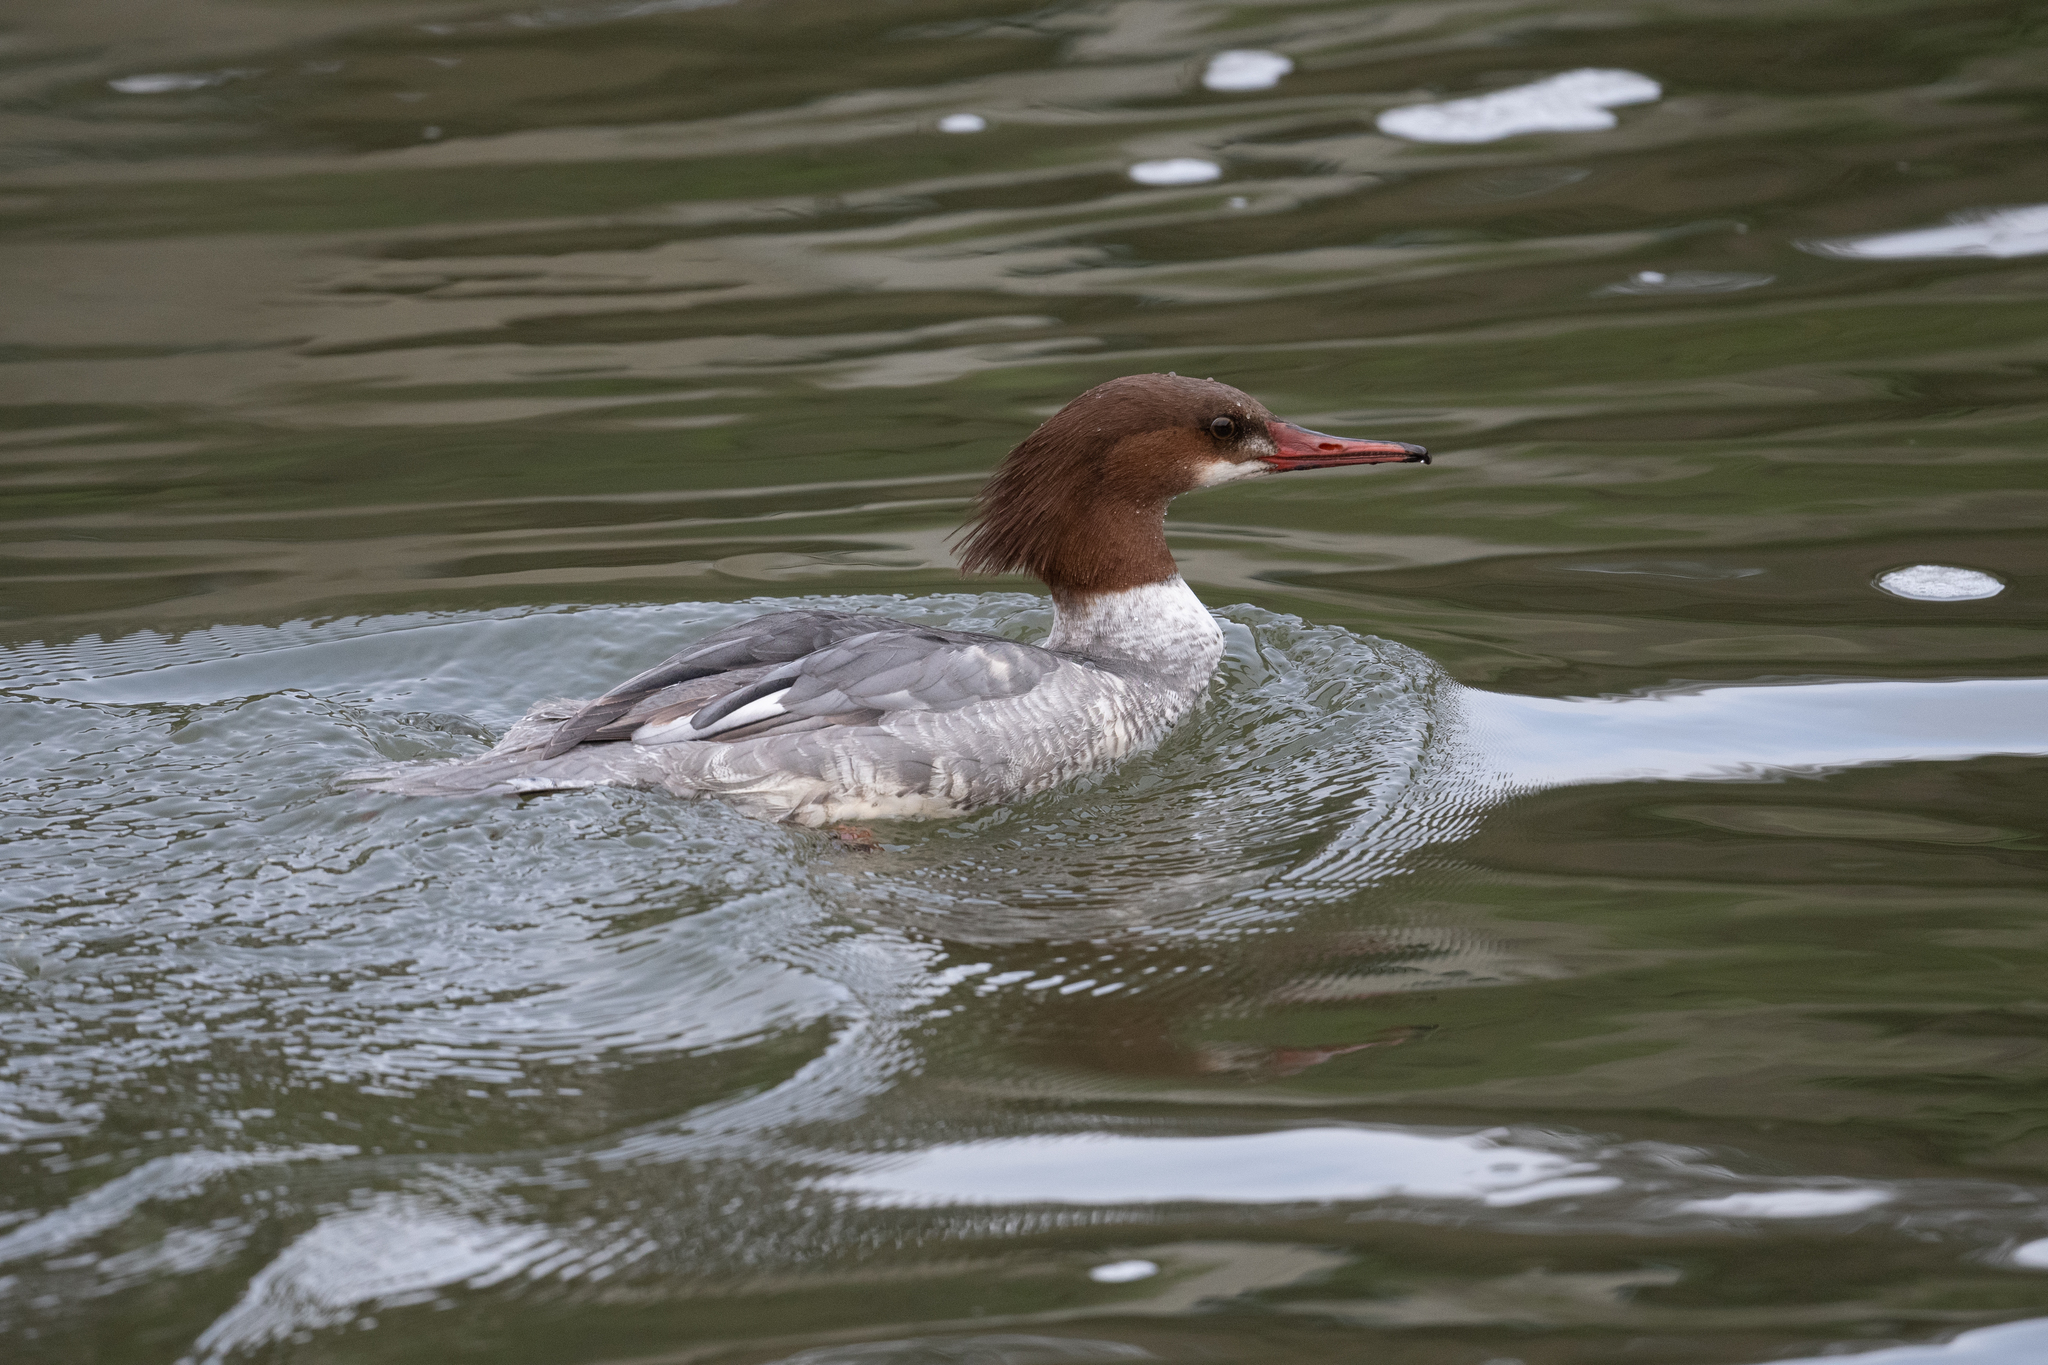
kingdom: Animalia
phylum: Chordata
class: Aves
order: Anseriformes
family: Anatidae
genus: Mergus
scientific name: Mergus merganser
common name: Common merganser
